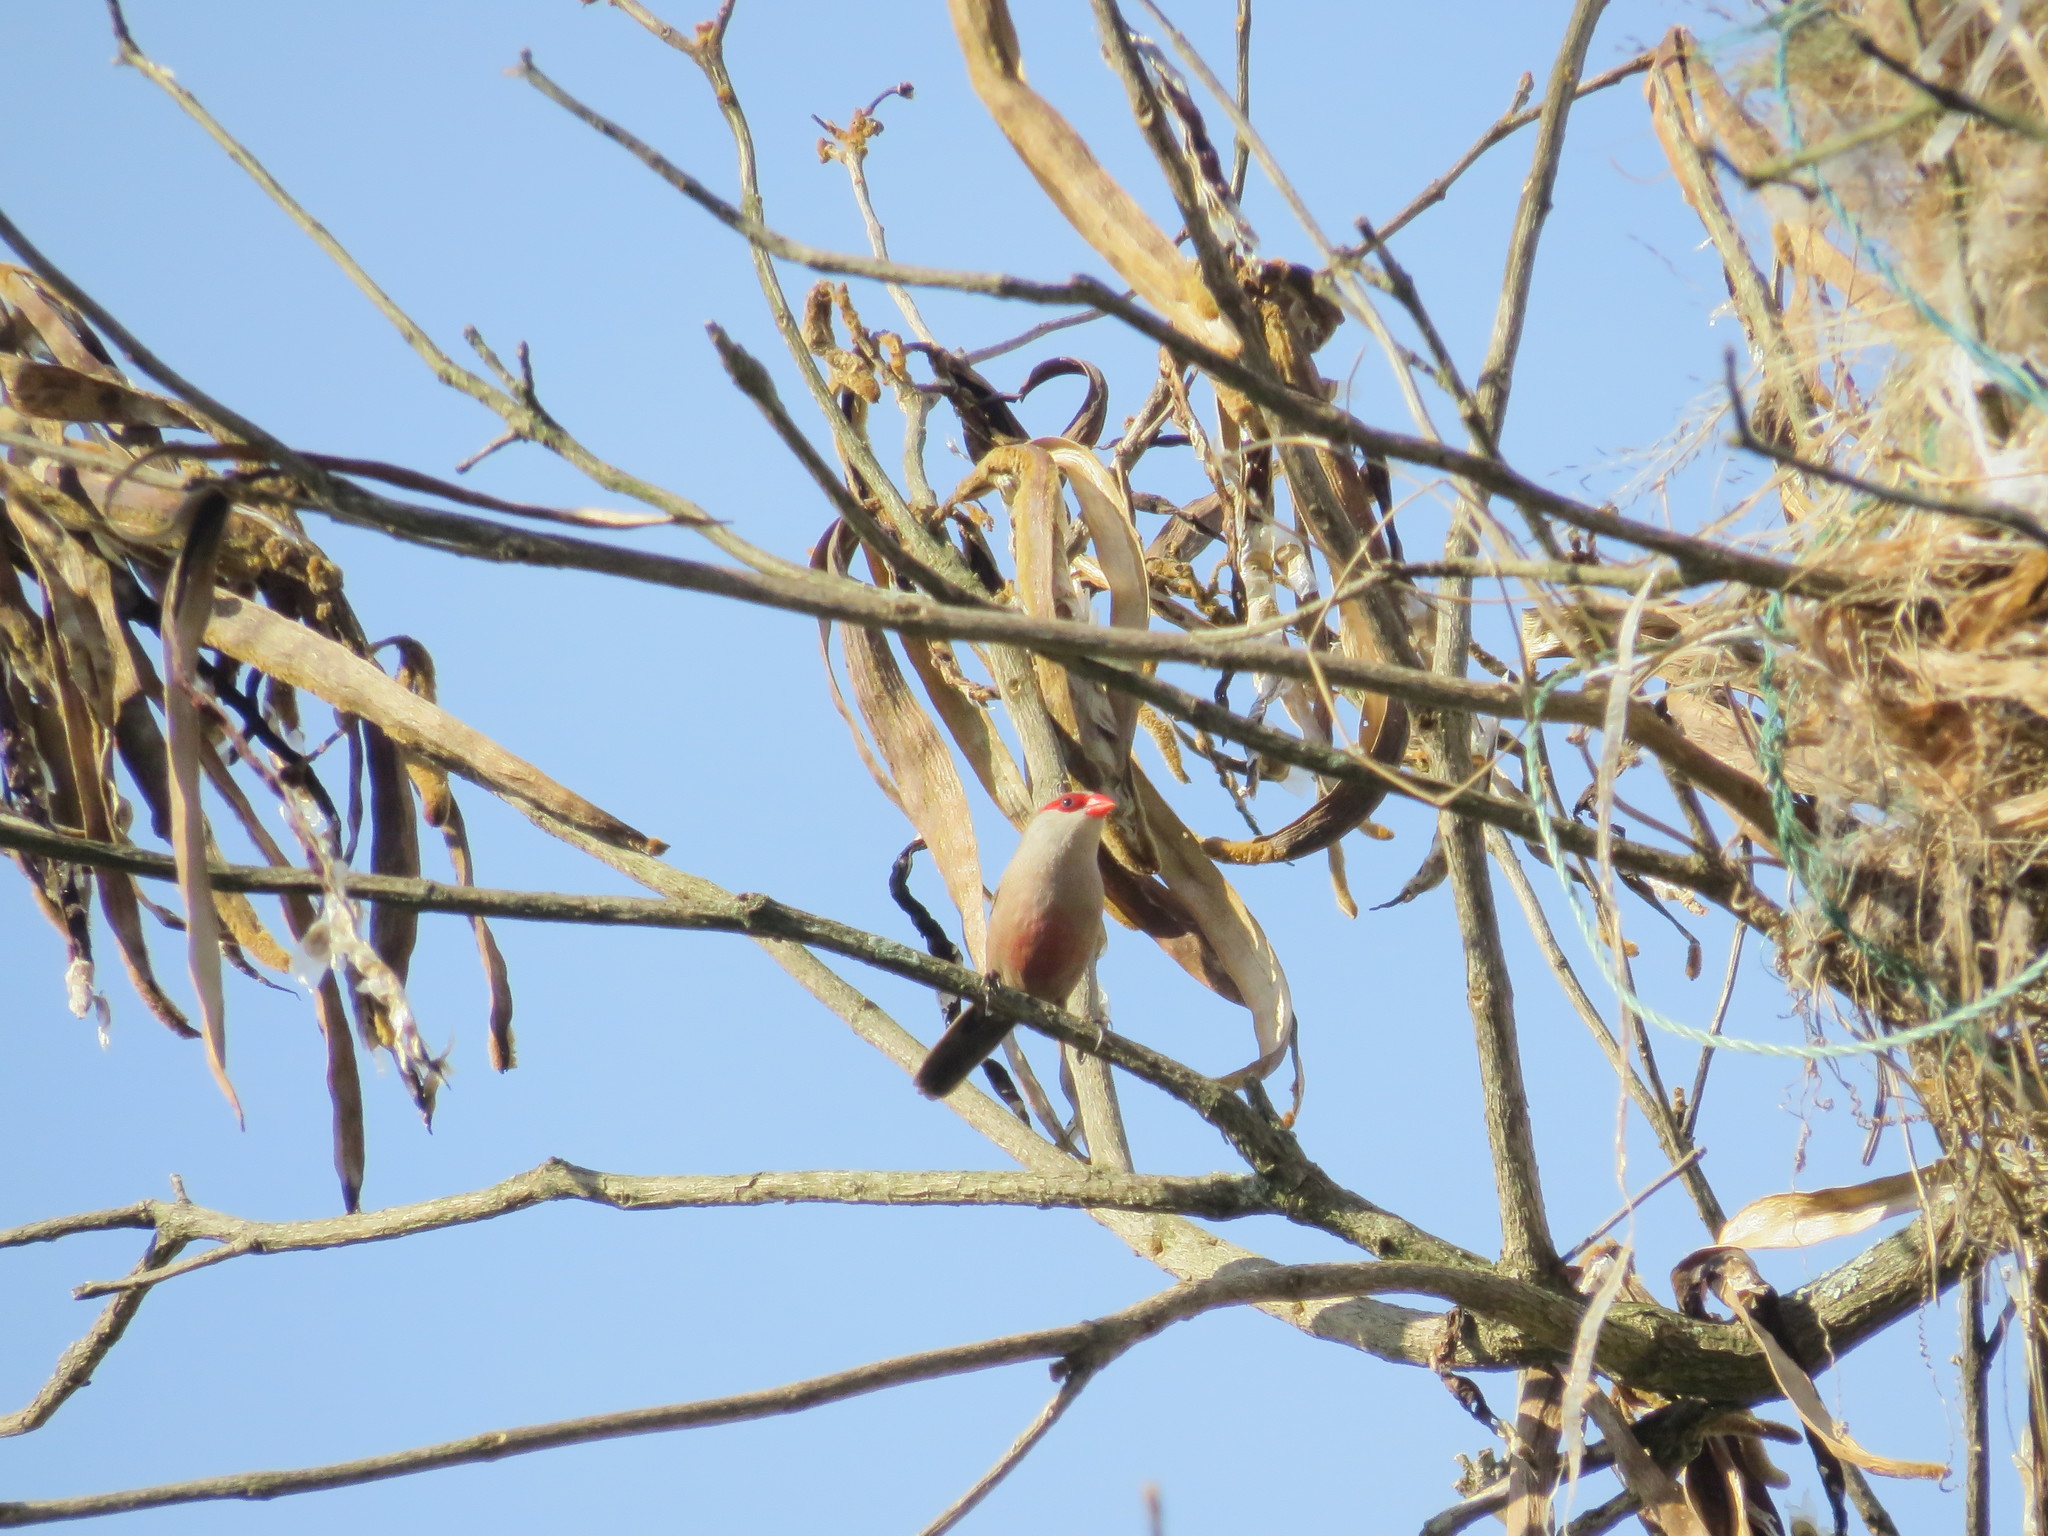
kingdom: Animalia
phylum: Chordata
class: Aves
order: Passeriformes
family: Estrildidae
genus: Estrilda
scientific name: Estrilda astrild
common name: Common waxbill
